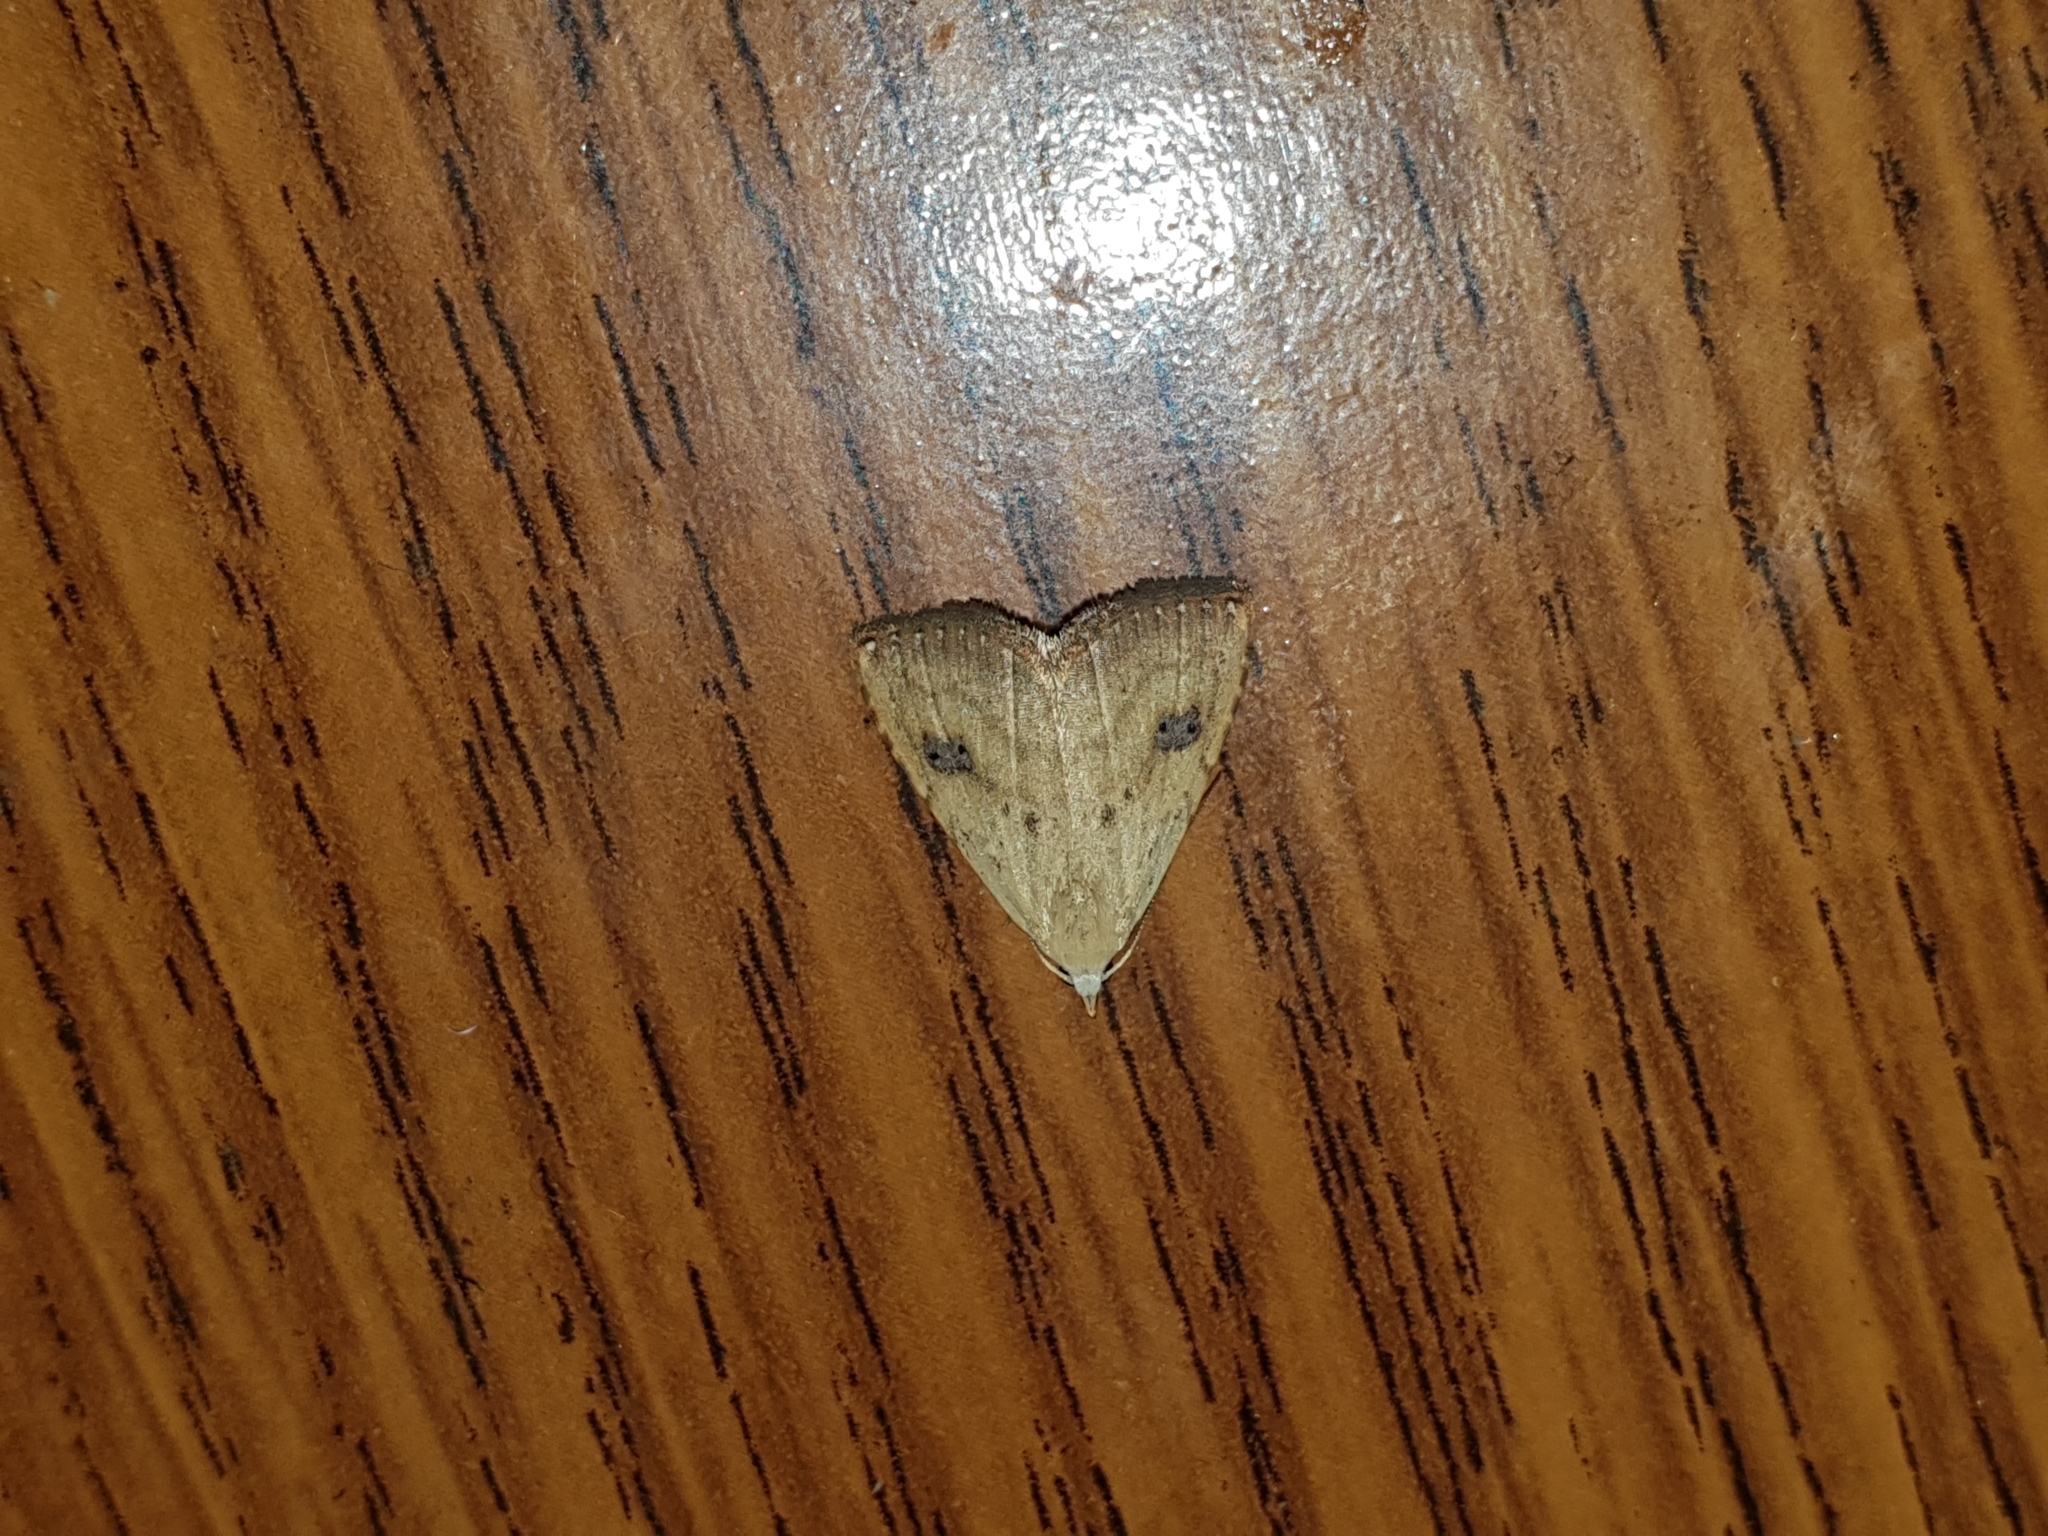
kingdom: Animalia
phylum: Arthropoda
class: Insecta
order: Lepidoptera
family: Erebidae
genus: Rivula
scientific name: Rivula sericealis
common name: Straw dot
